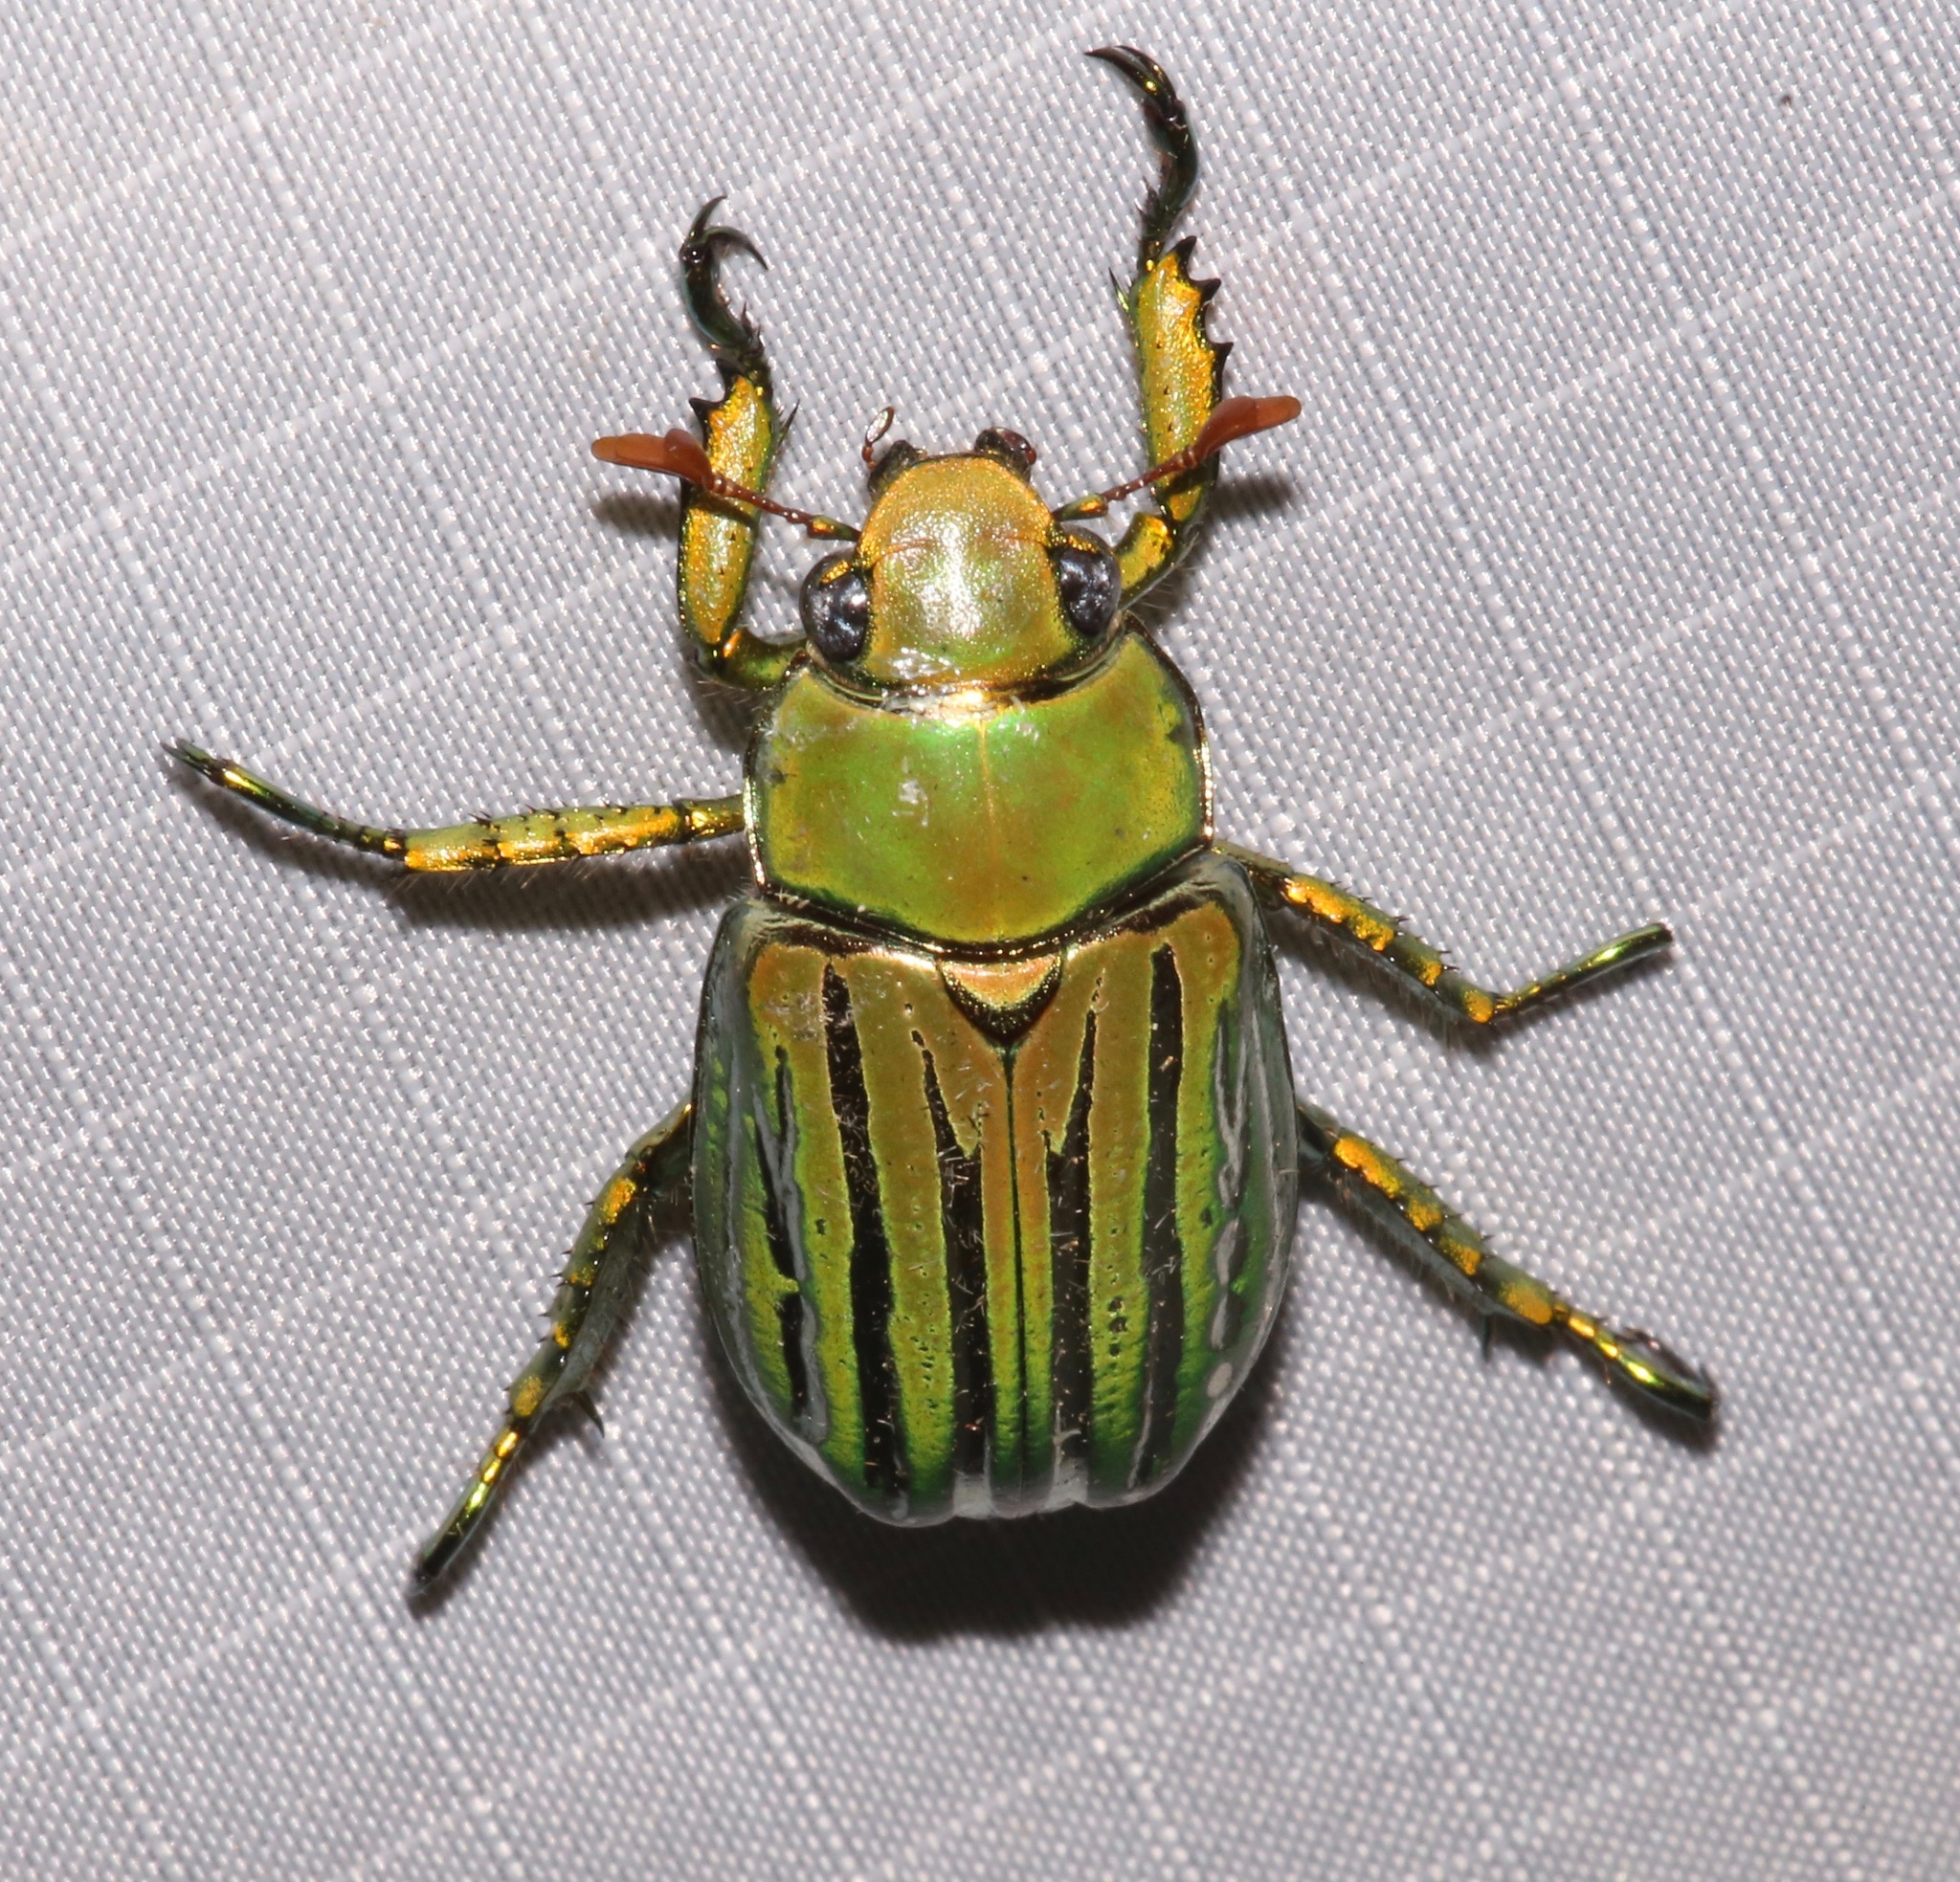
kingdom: Animalia
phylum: Arthropoda
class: Insecta
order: Coleoptera
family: Scarabaeidae
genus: Chrysina
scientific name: Chrysina gloriosa
